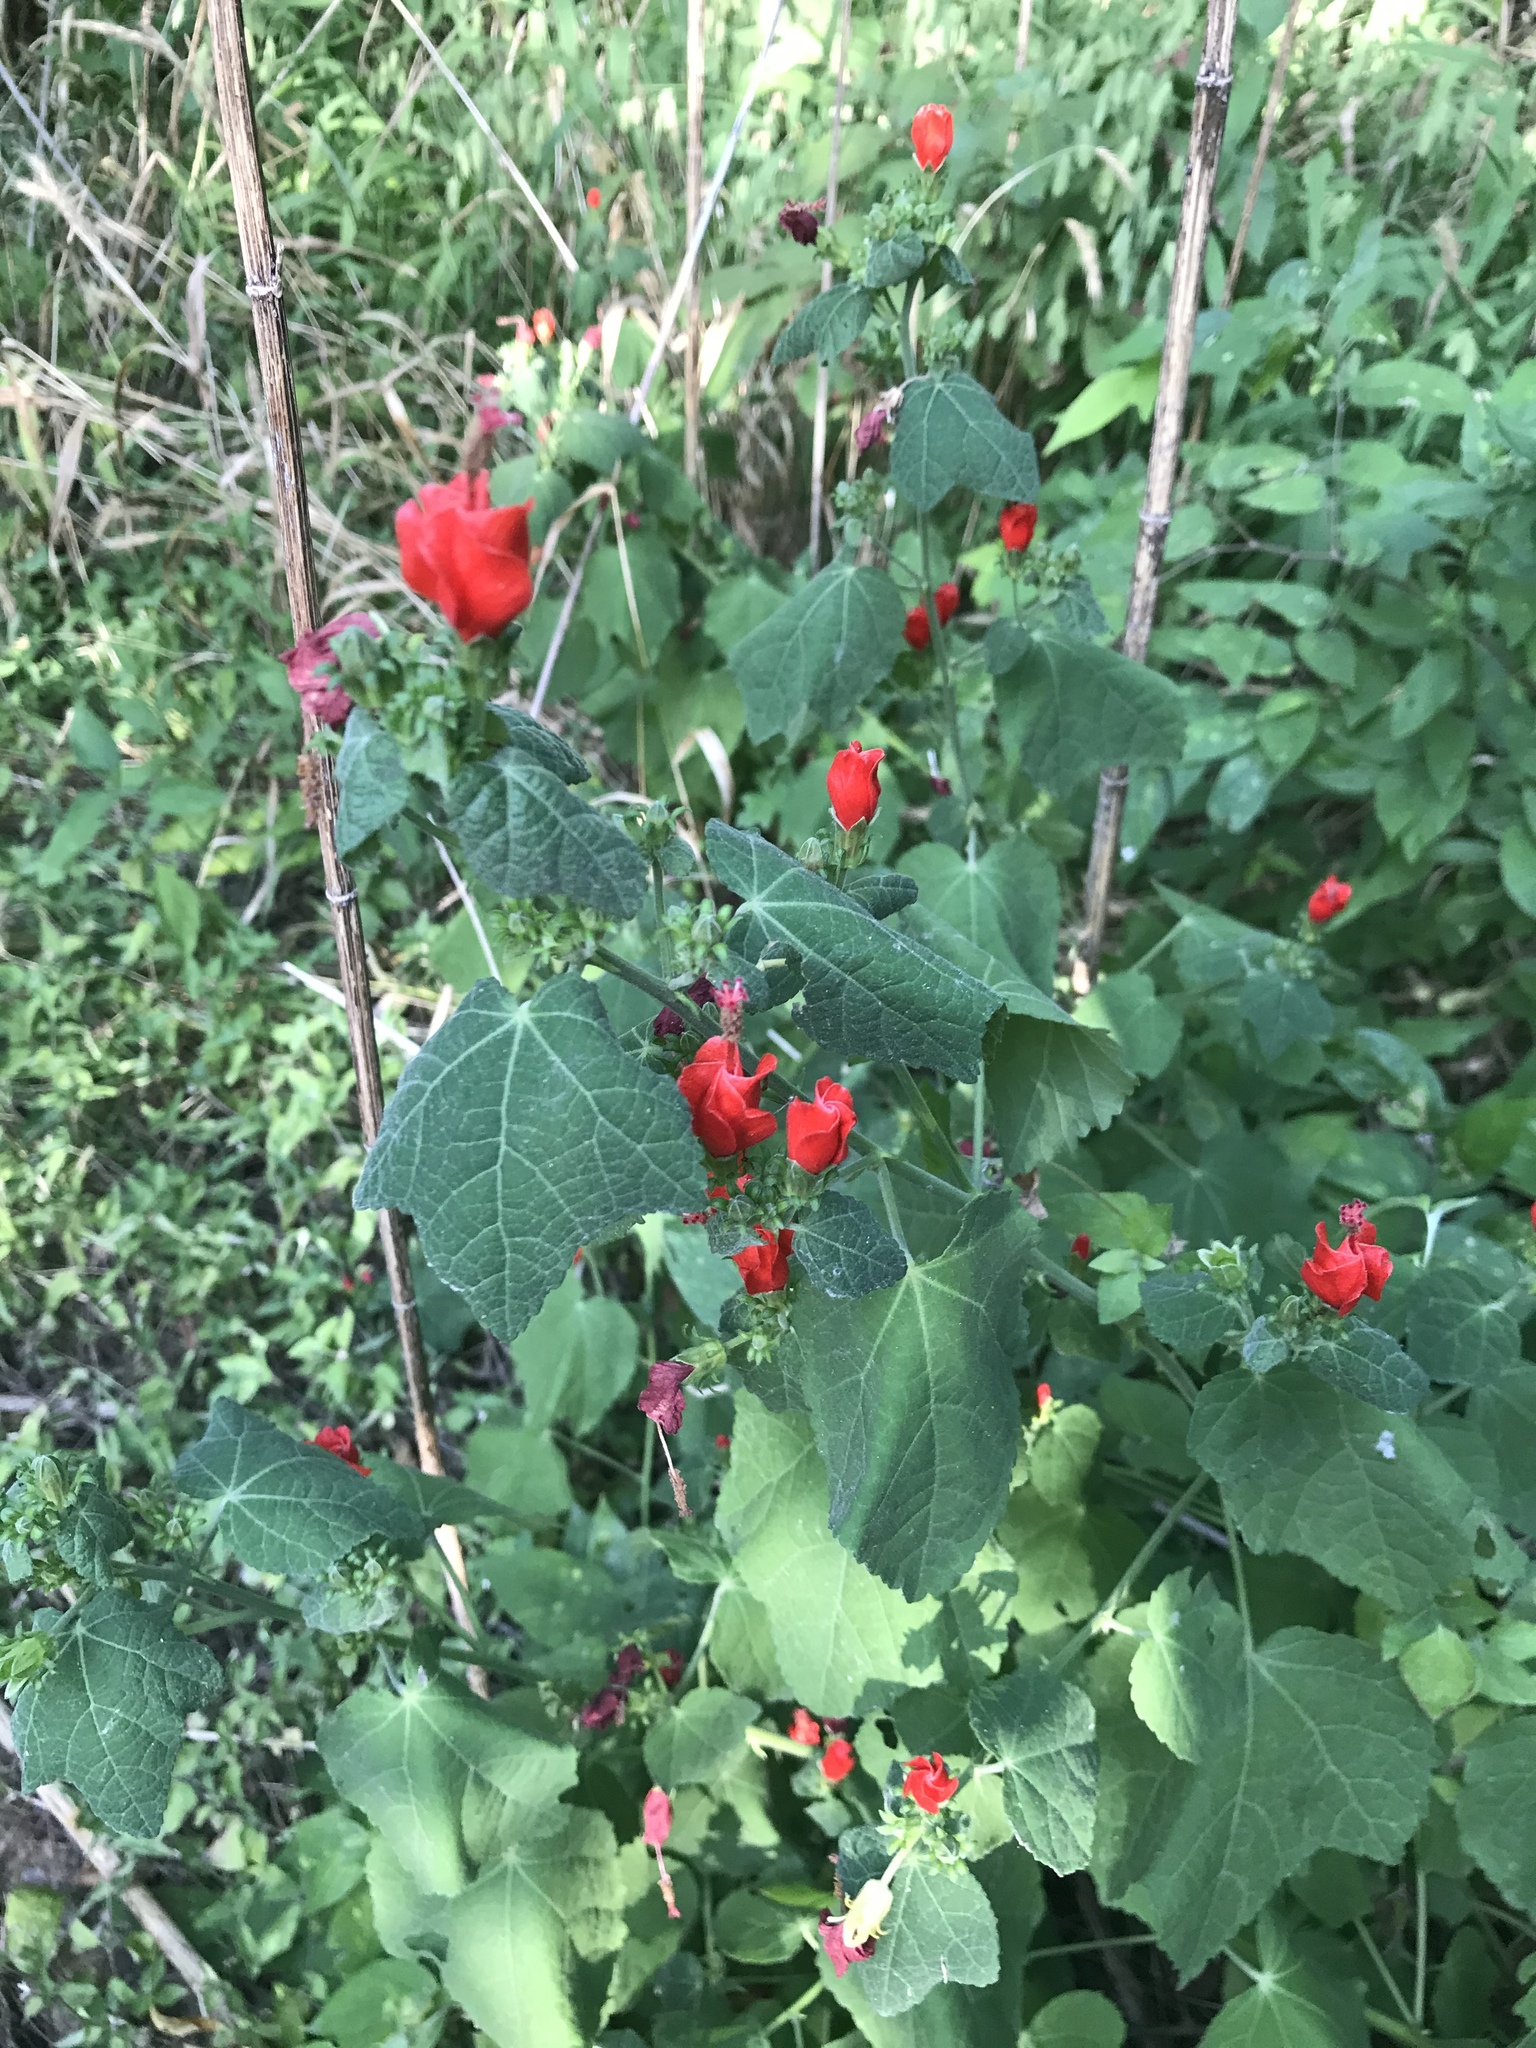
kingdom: Plantae
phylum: Tracheophyta
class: Magnoliopsida
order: Malvales
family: Malvaceae
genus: Malvaviscus
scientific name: Malvaviscus arboreus
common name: Wax mallow
